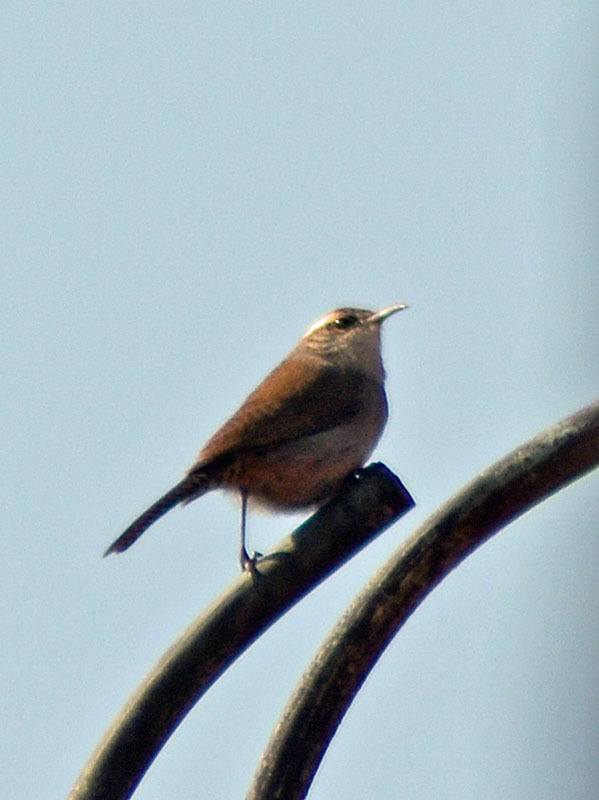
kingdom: Animalia
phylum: Chordata
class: Aves
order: Passeriformes
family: Troglodytidae
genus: Thryomanes
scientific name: Thryomanes bewickii
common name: Bewick's wren
